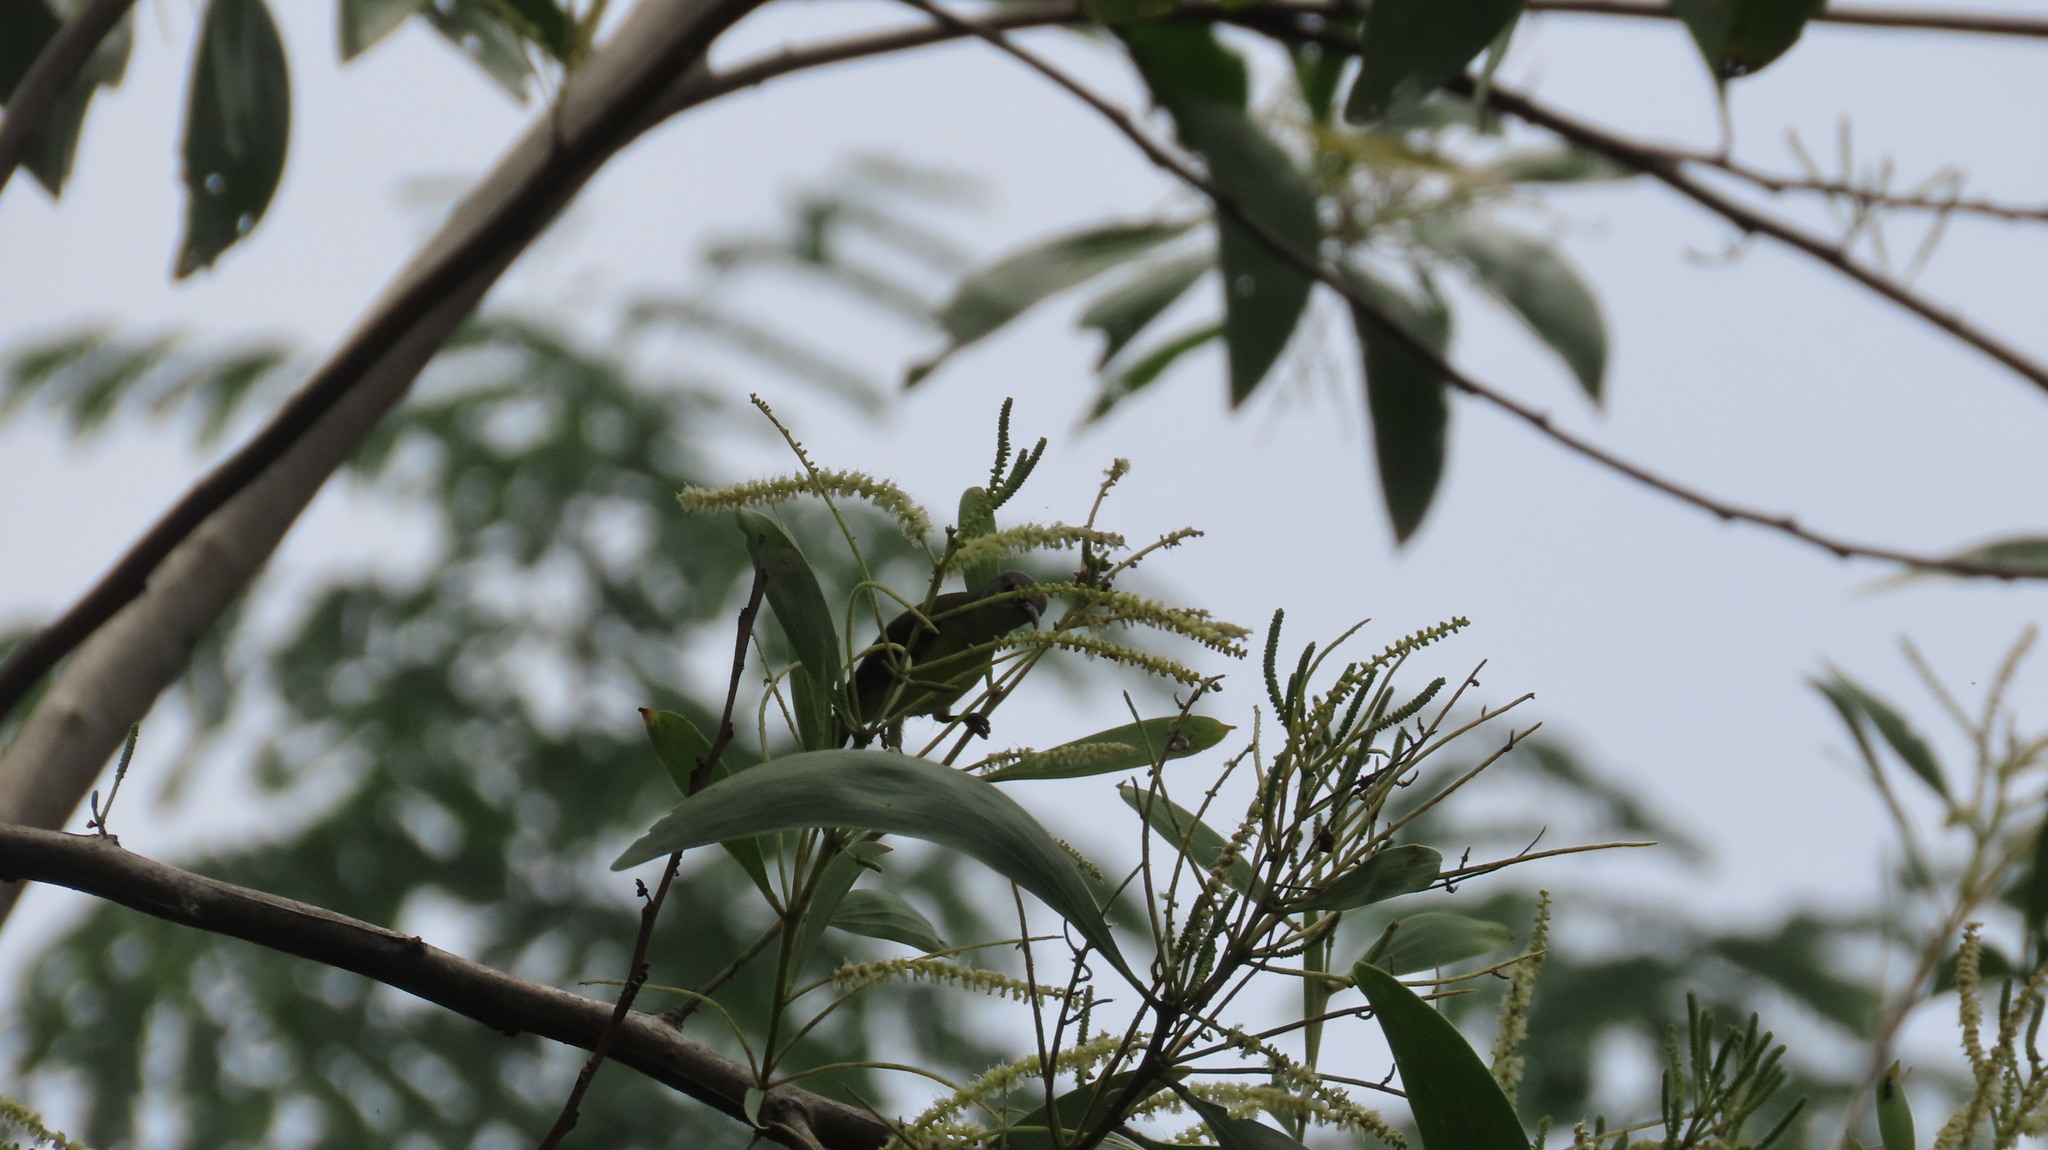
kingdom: Animalia
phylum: Chordata
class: Aves
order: Passeriformes
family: Nectariniidae
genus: Leptocoma
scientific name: Leptocoma zeylonica
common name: Purple-rumped sunbird
